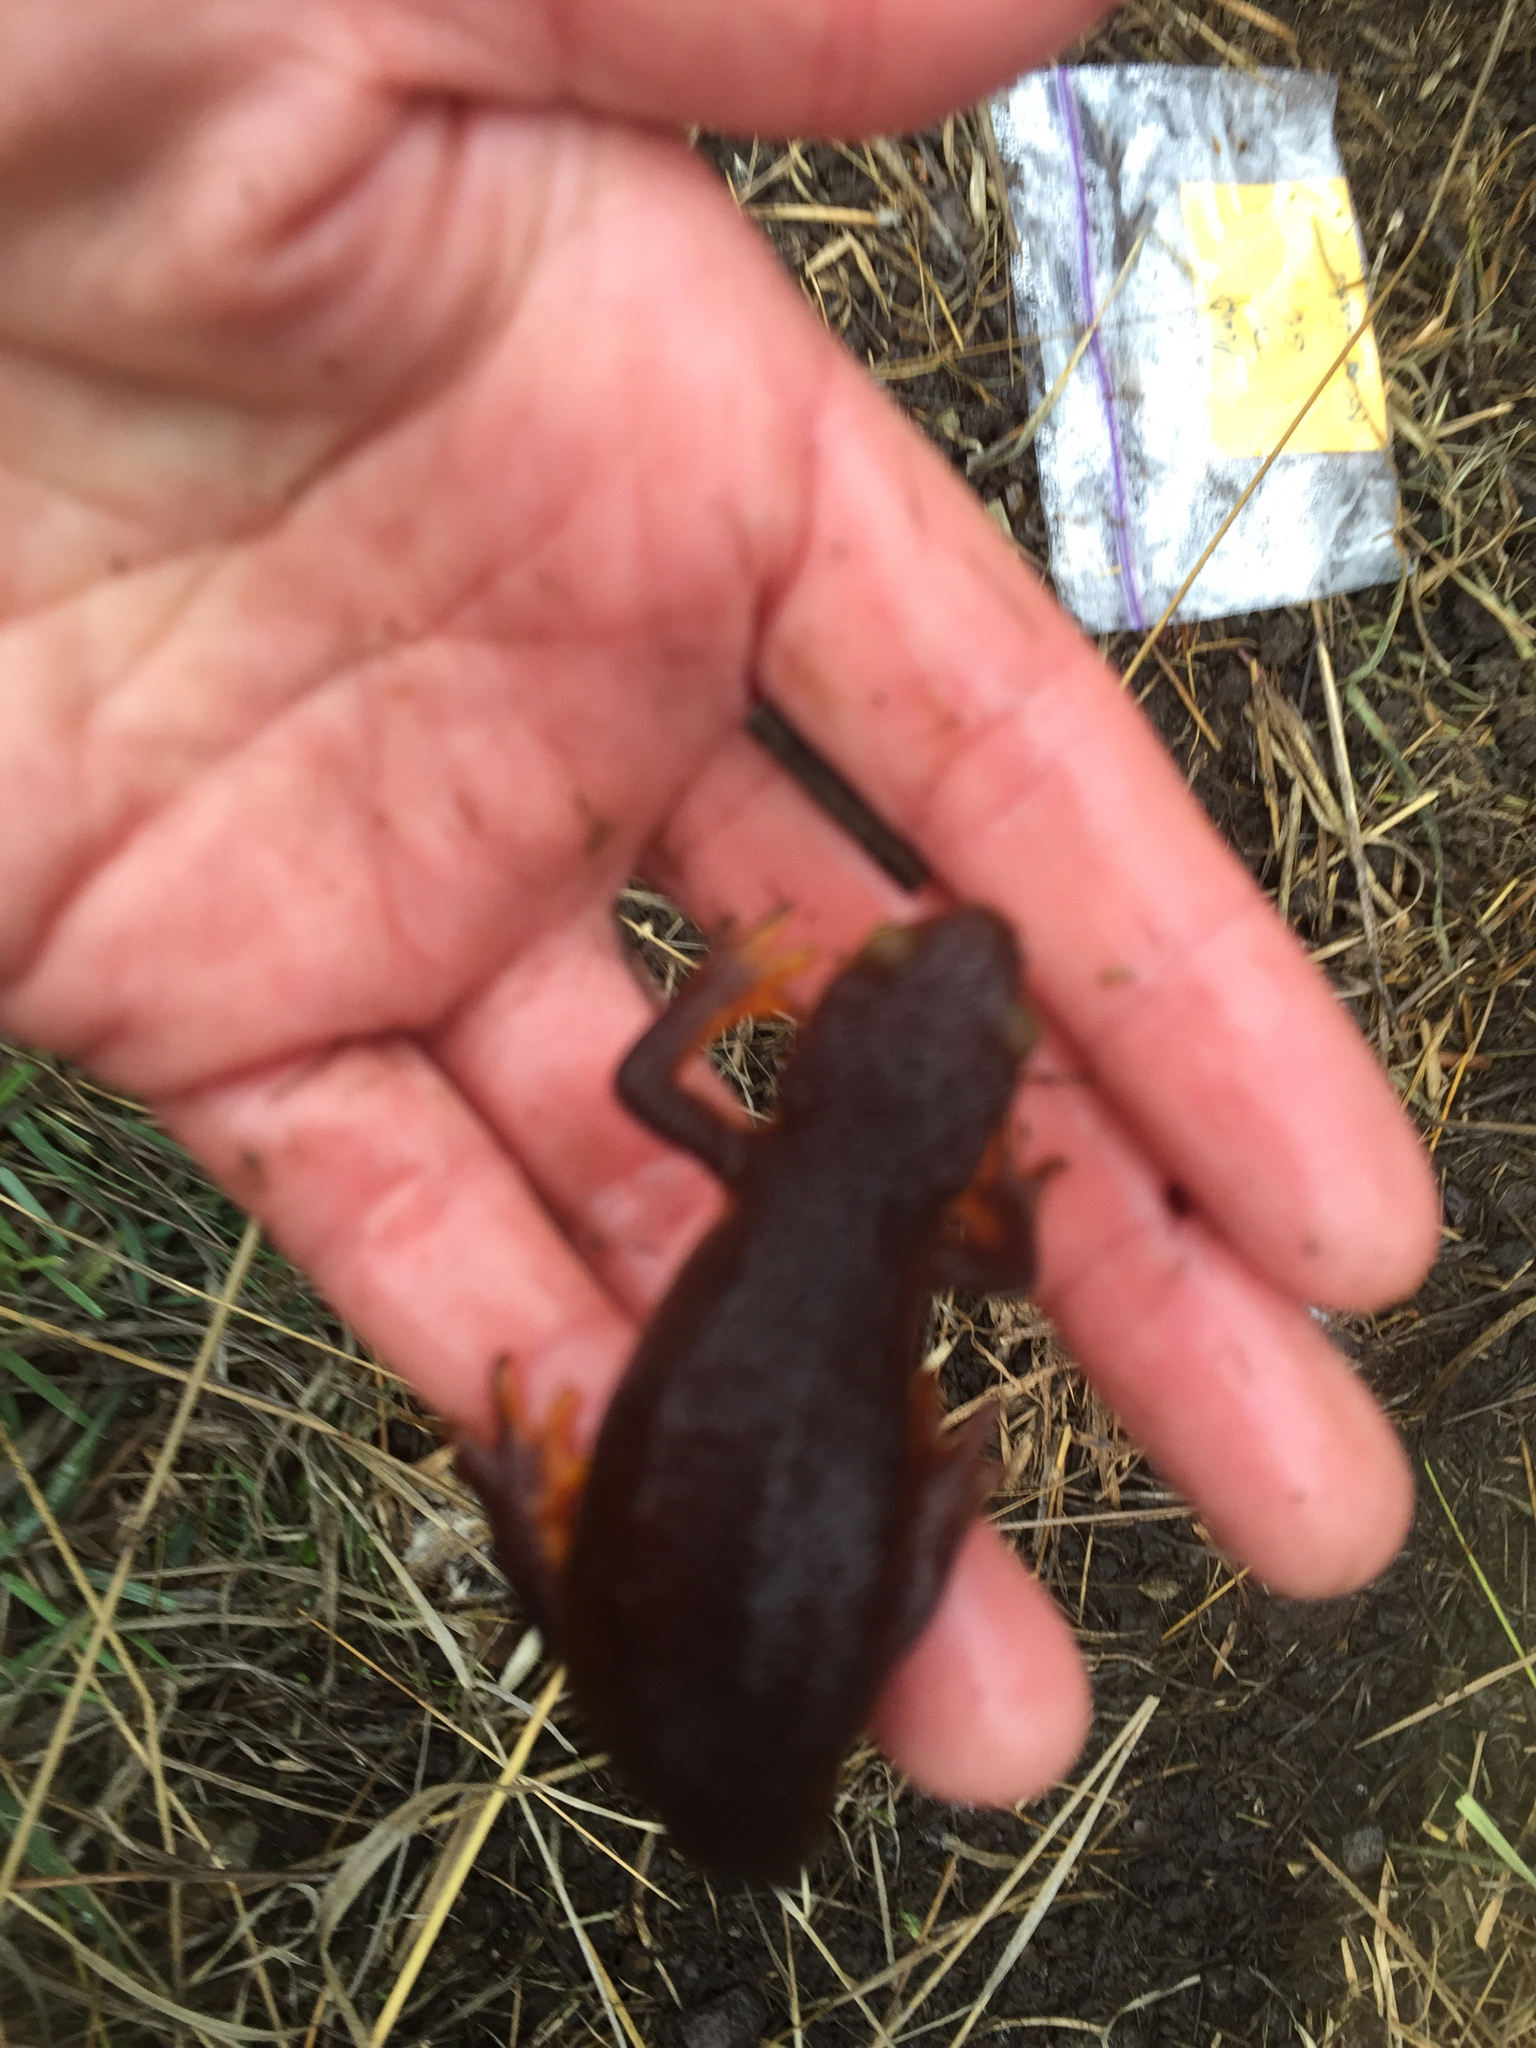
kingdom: Animalia
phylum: Chordata
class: Amphibia
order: Caudata
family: Salamandridae
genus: Taricha
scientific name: Taricha torosa
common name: California newt
